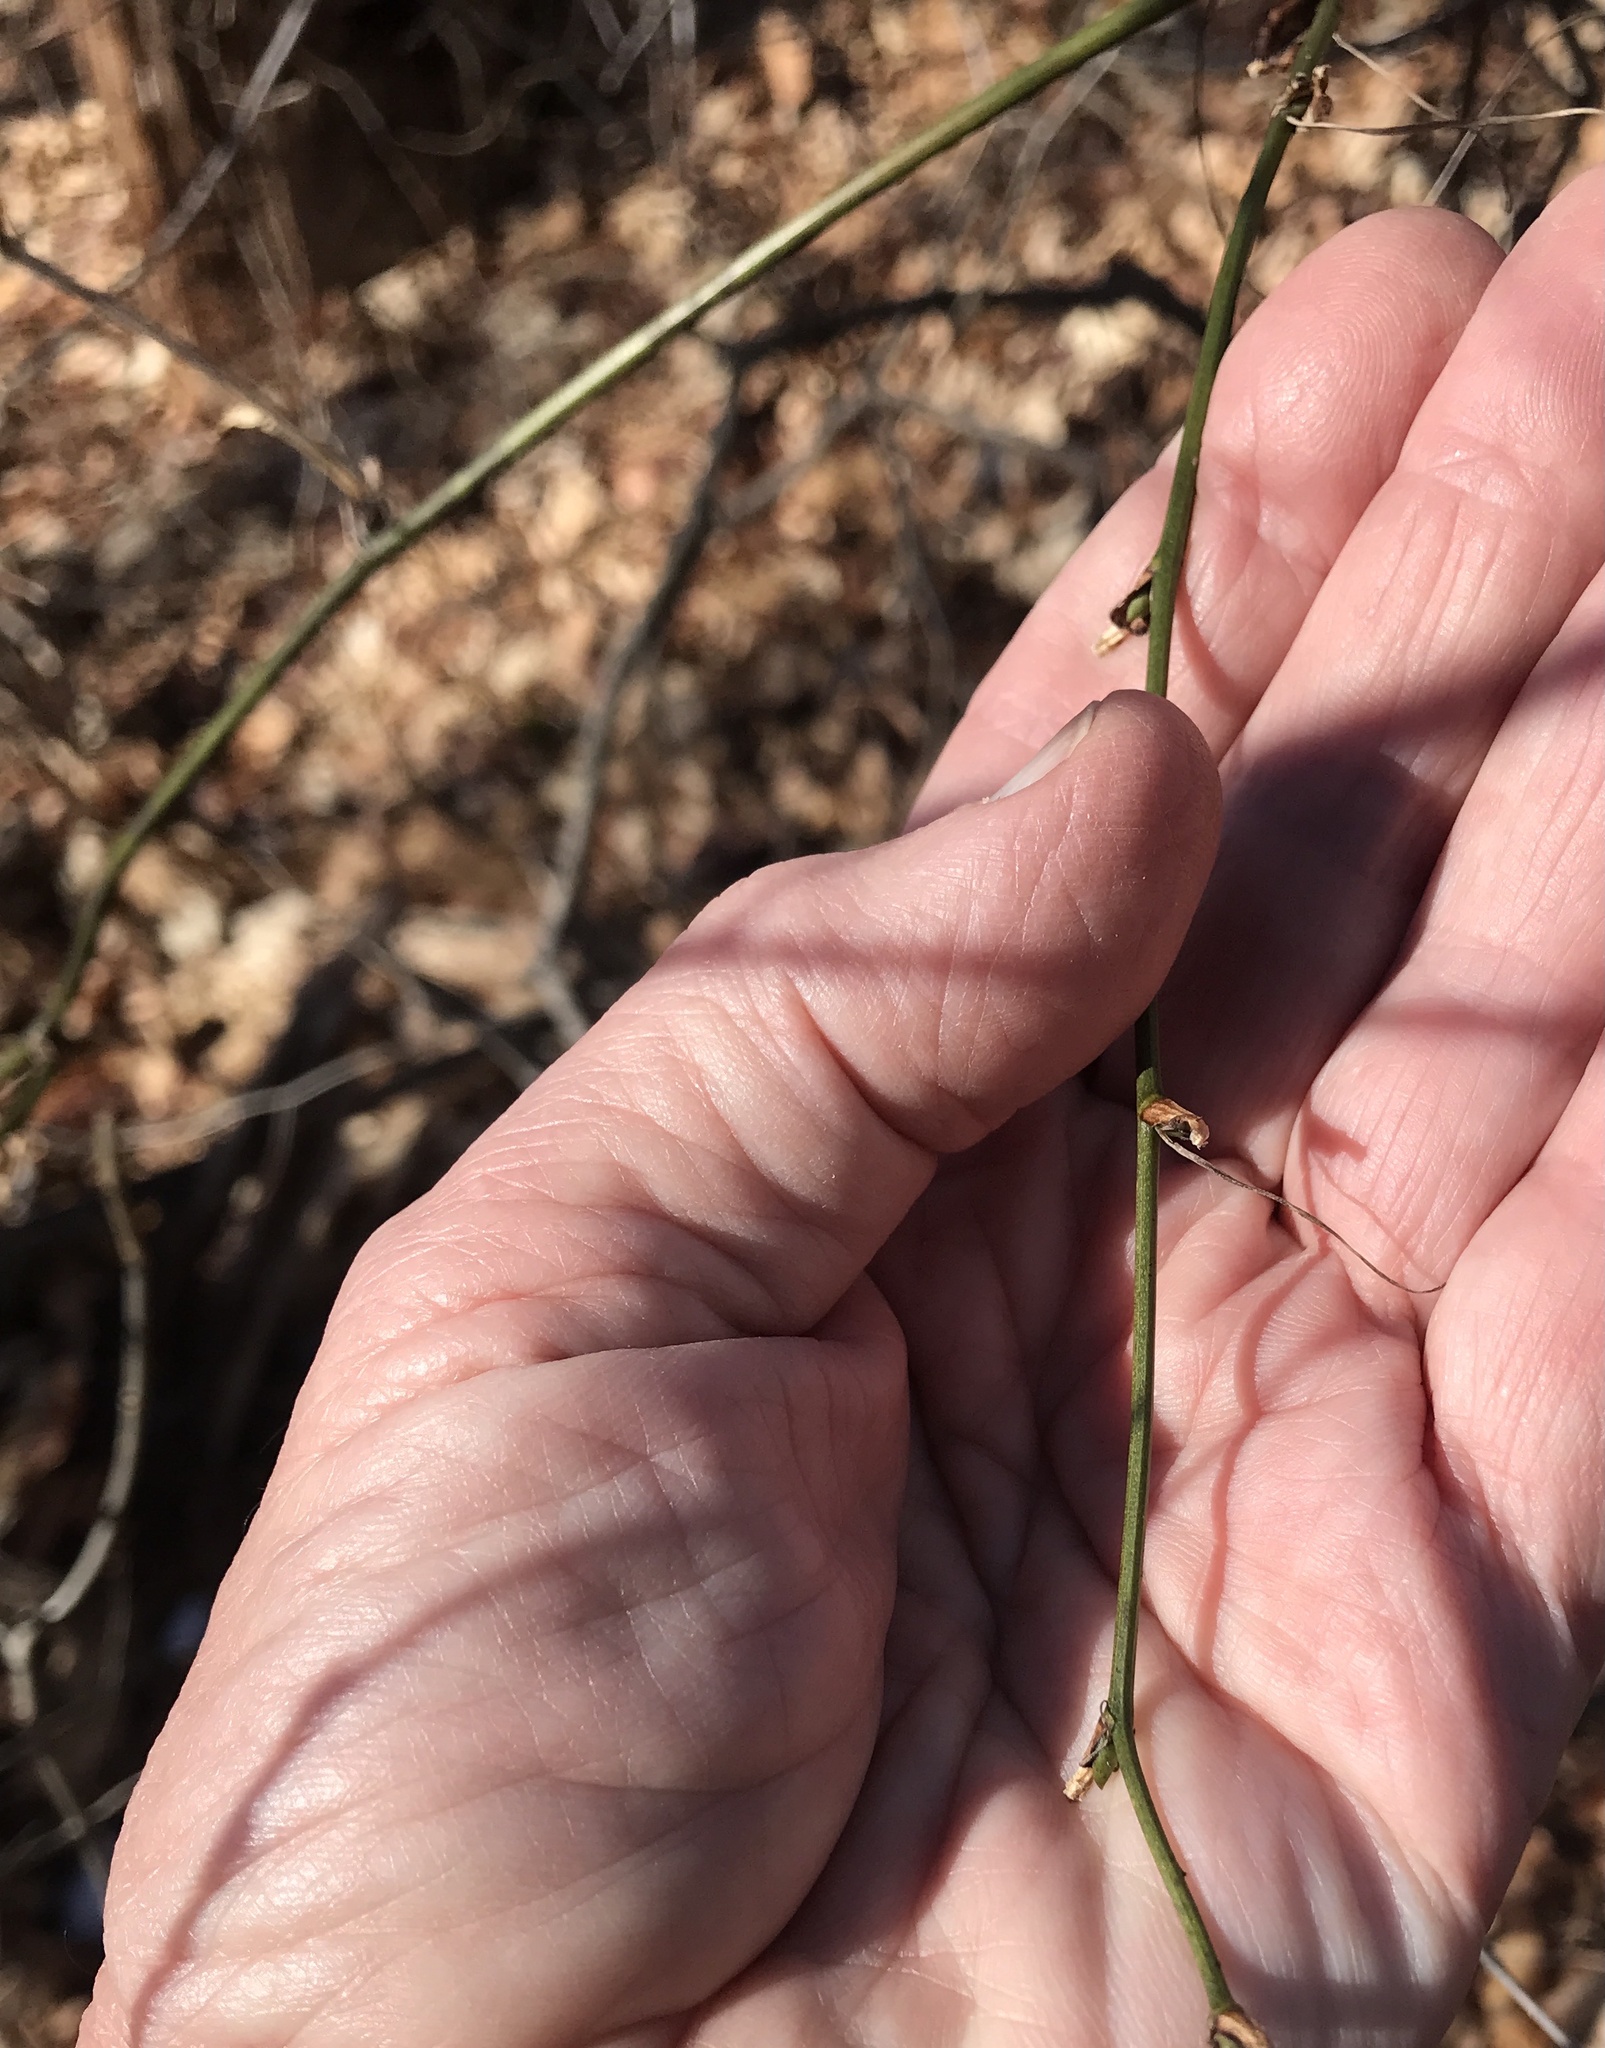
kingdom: Plantae
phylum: Tracheophyta
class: Liliopsida
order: Liliales
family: Smilacaceae
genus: Smilax
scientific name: Smilax tamnoides
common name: Hellfetter
